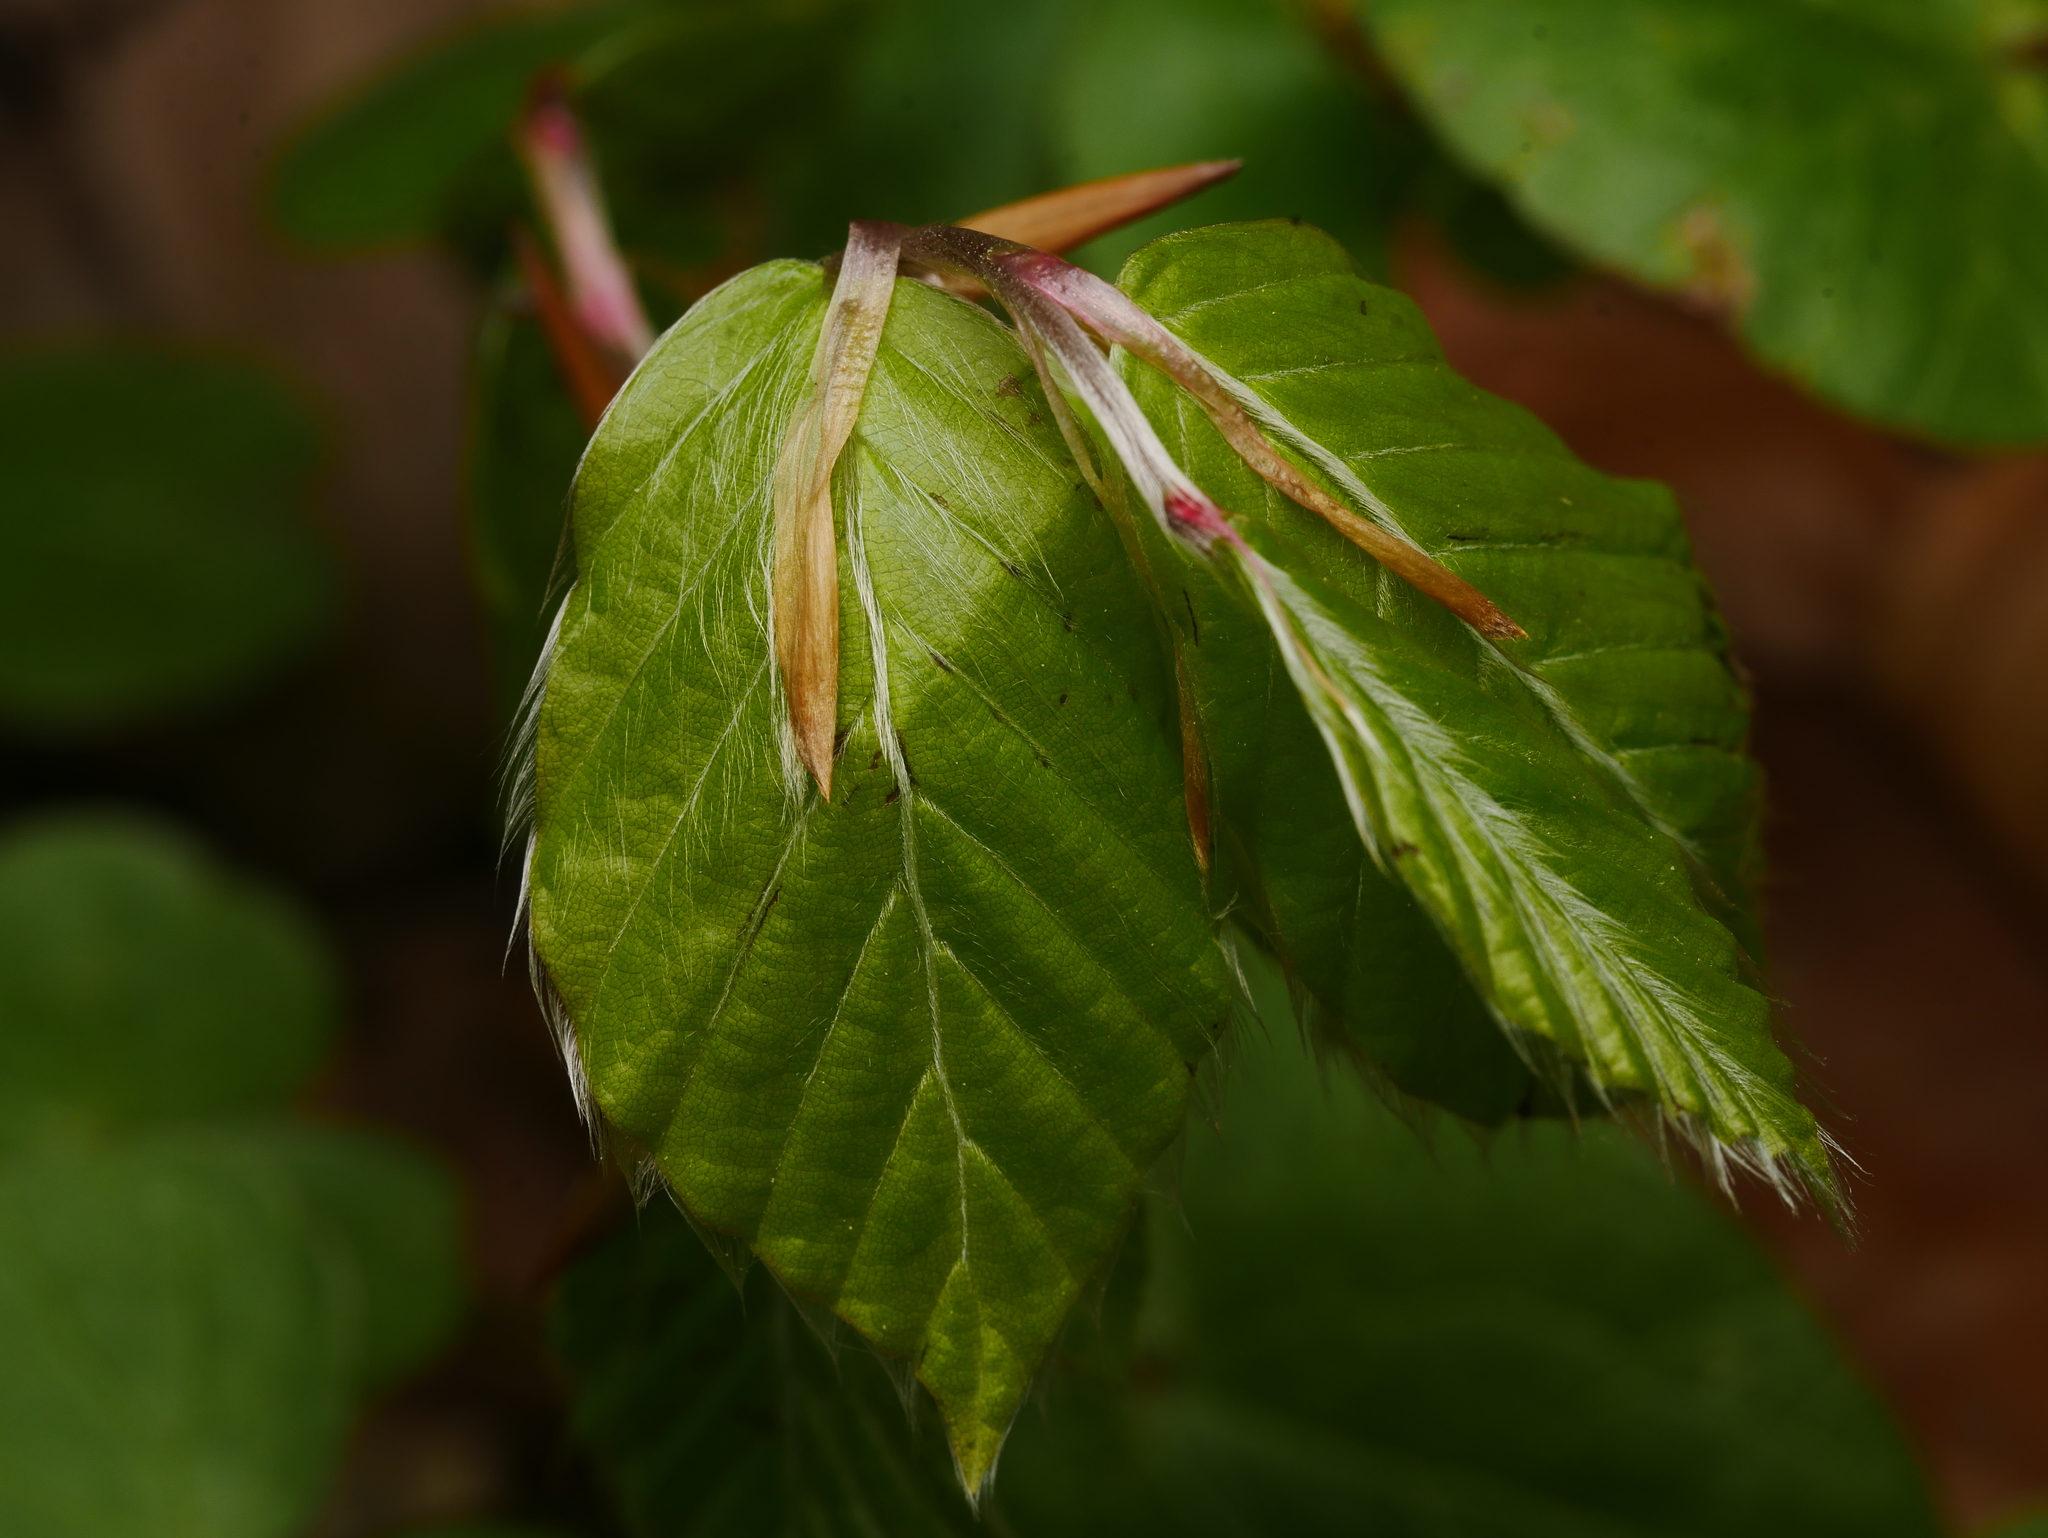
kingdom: Plantae
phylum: Tracheophyta
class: Magnoliopsida
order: Fagales
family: Fagaceae
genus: Fagus
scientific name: Fagus sylvatica
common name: Beech
